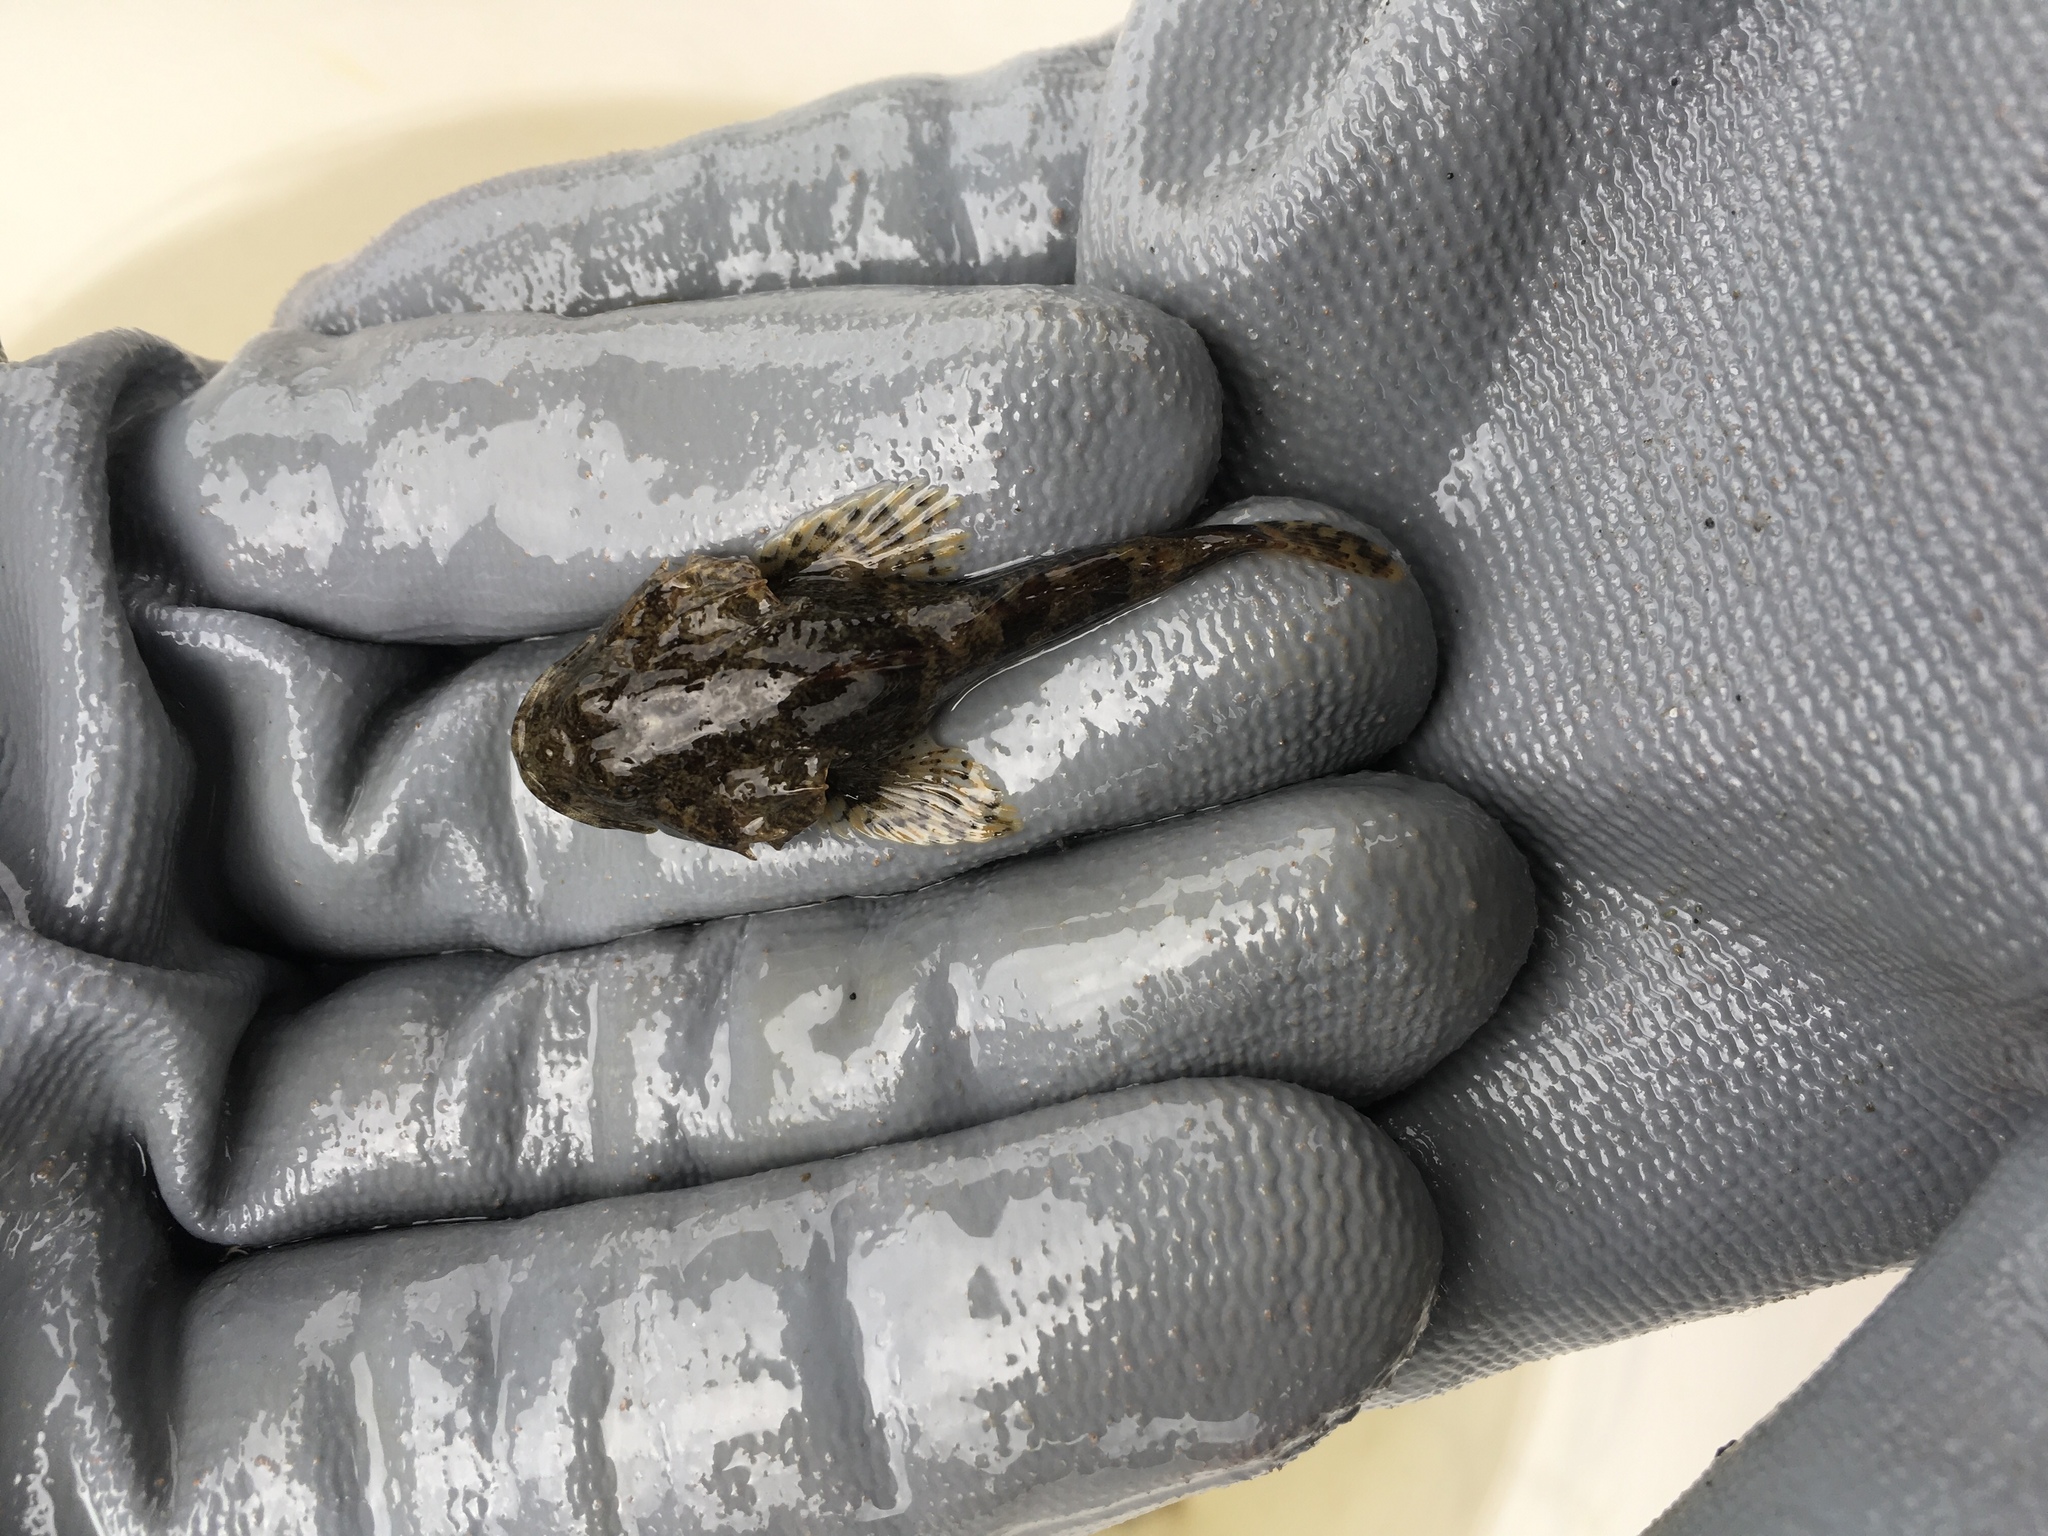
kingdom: Animalia
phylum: Chordata
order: Scorpaeniformes
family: Cottidae
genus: Myoxocephalus
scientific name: Myoxocephalus polyacanthocephalus
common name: Great sculpin
